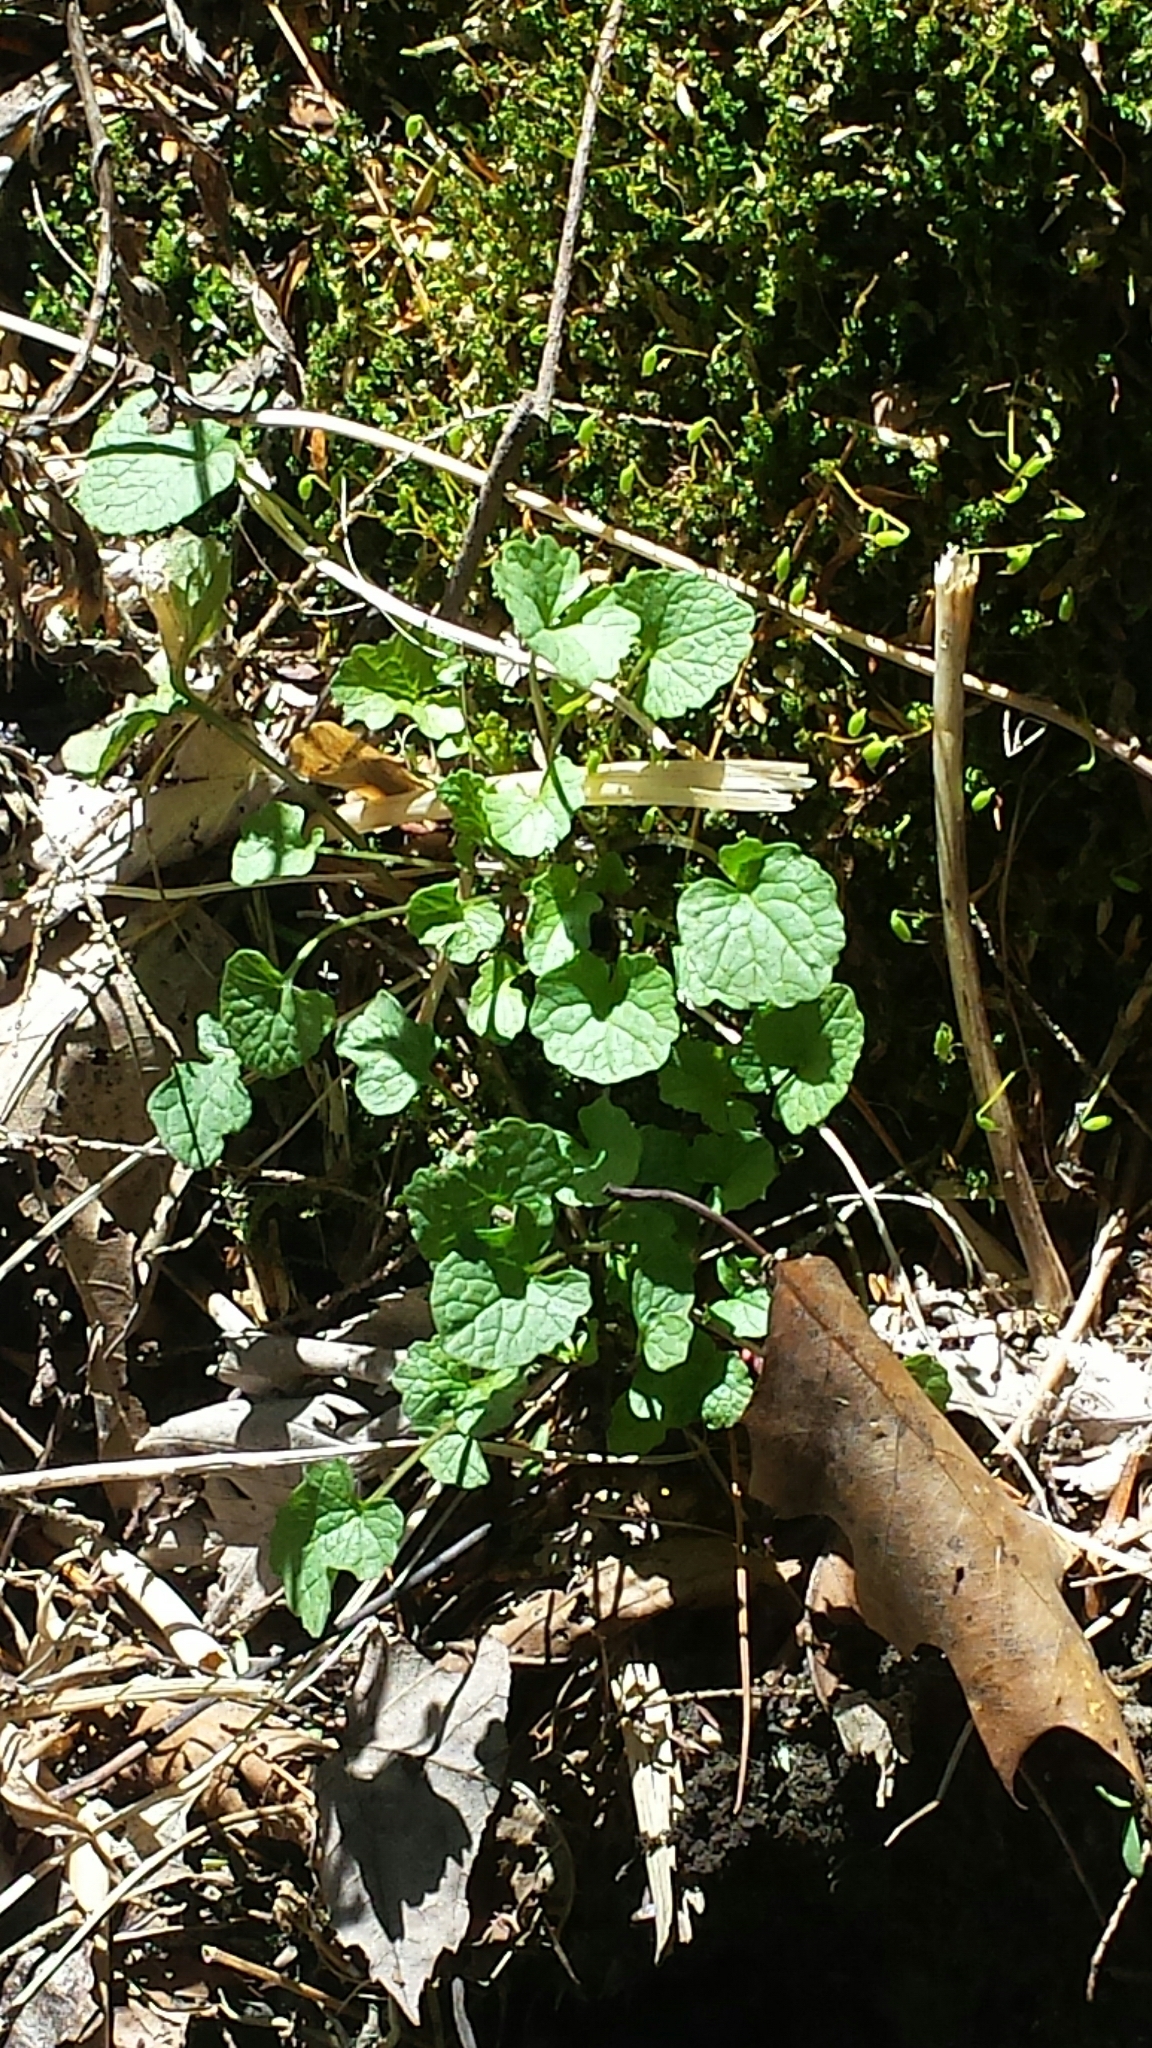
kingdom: Plantae
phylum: Tracheophyta
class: Magnoliopsida
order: Brassicales
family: Brassicaceae
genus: Alliaria
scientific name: Alliaria petiolata
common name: Garlic mustard
